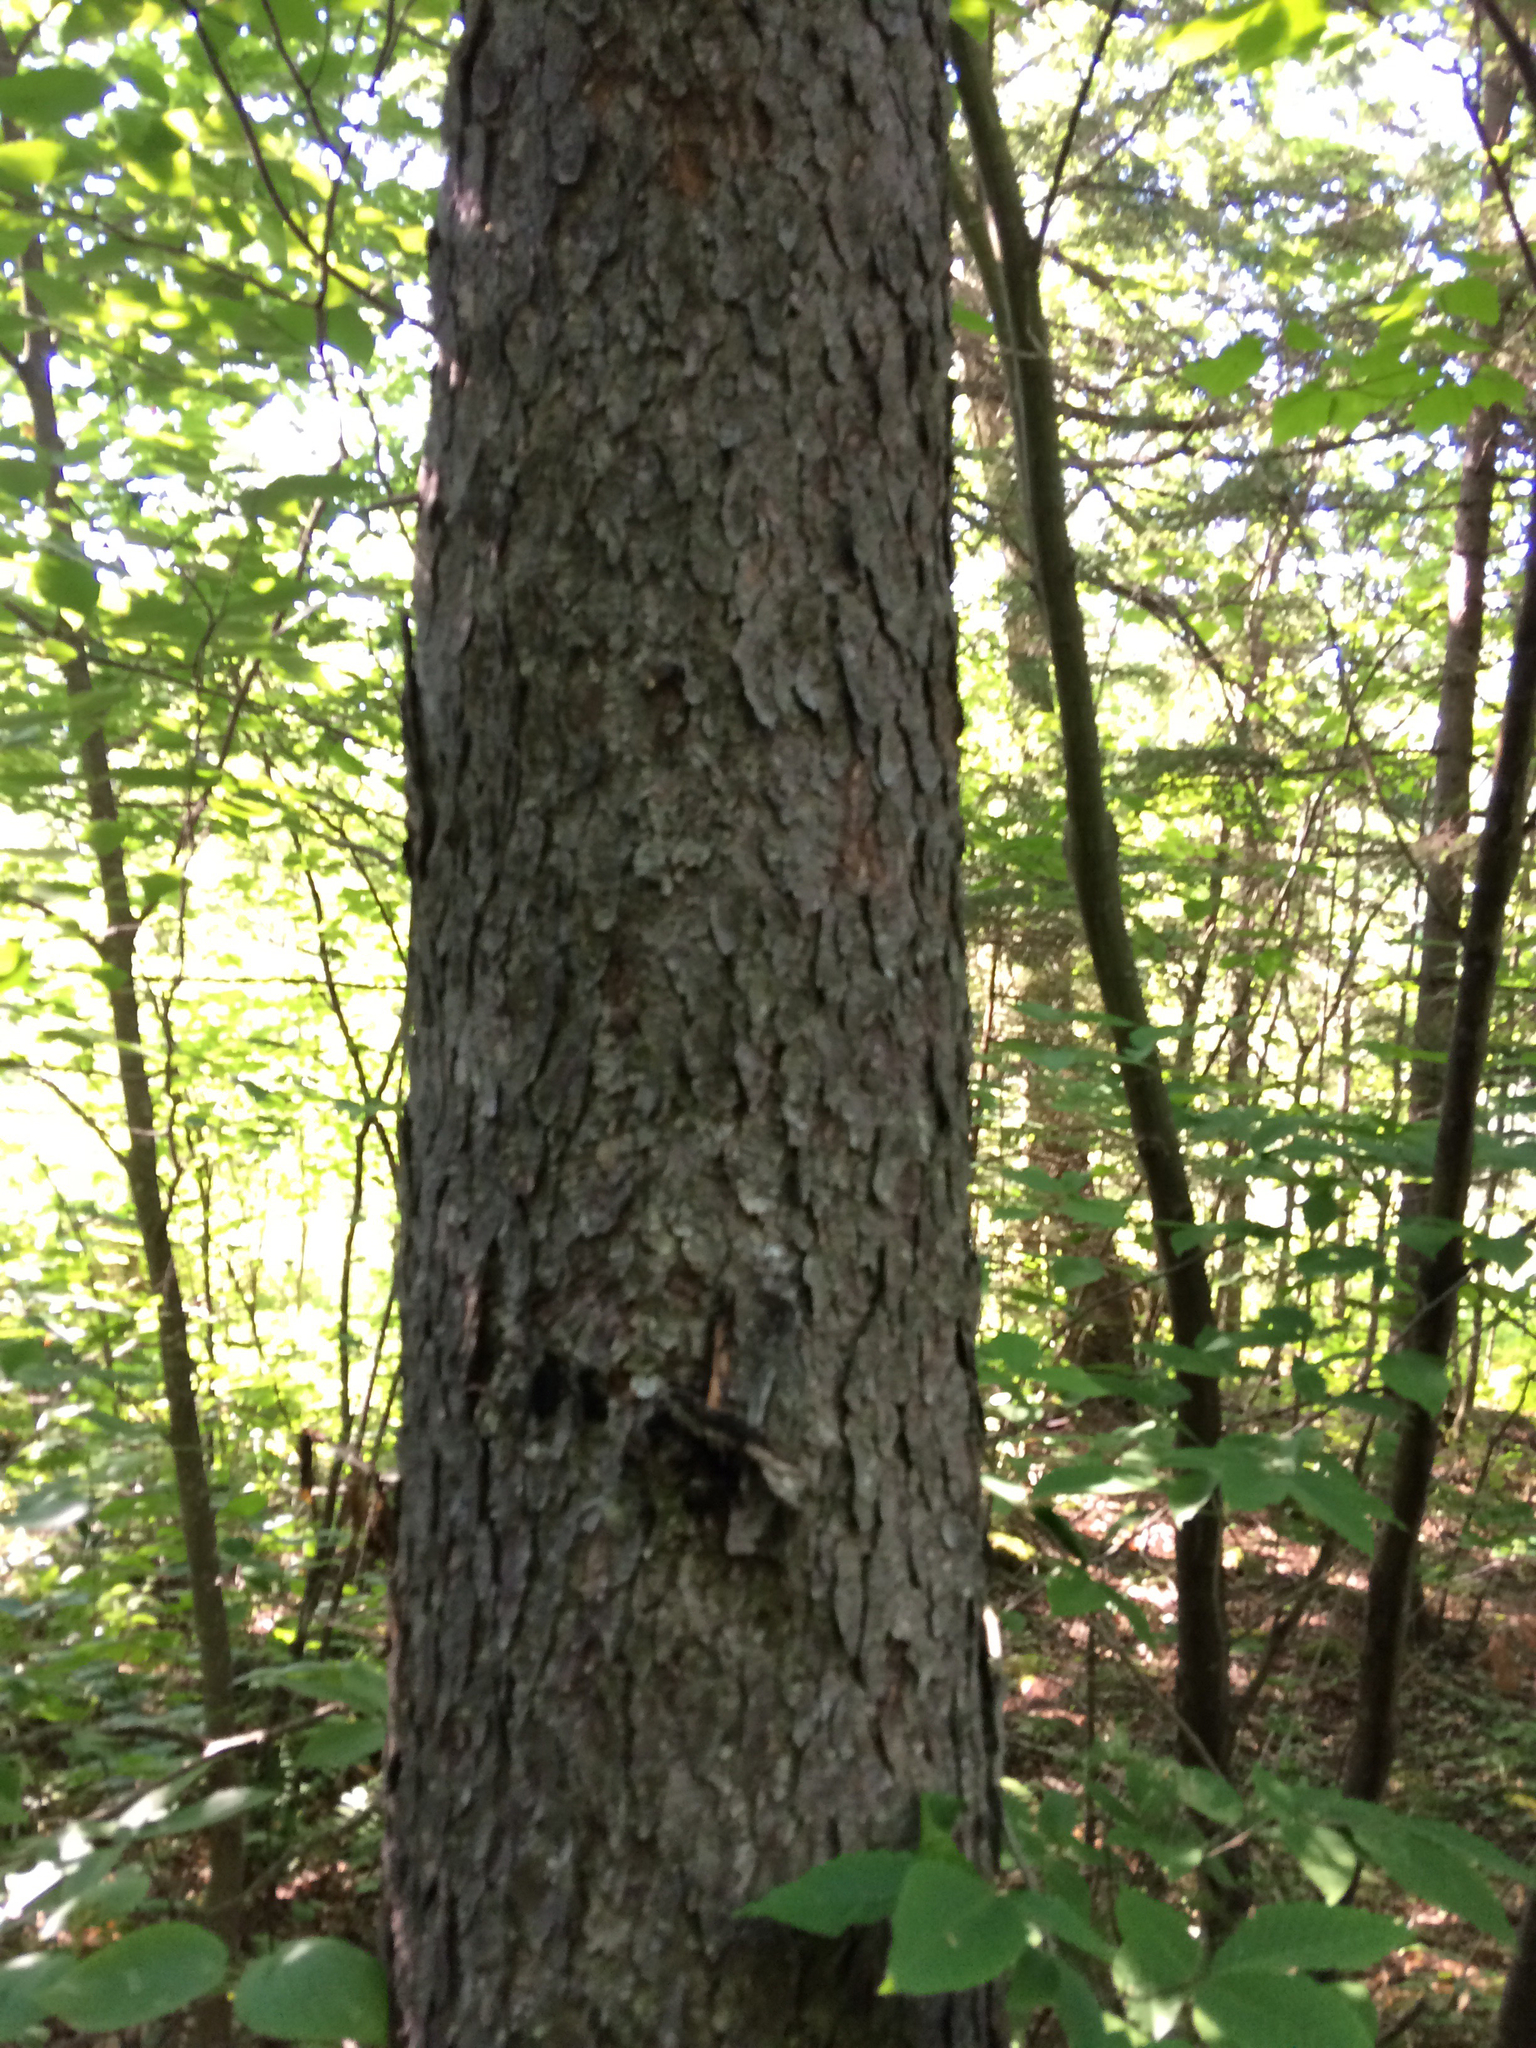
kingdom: Plantae
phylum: Tracheophyta
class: Magnoliopsida
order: Rosales
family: Rosaceae
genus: Prunus
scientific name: Prunus serotina
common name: Black cherry
